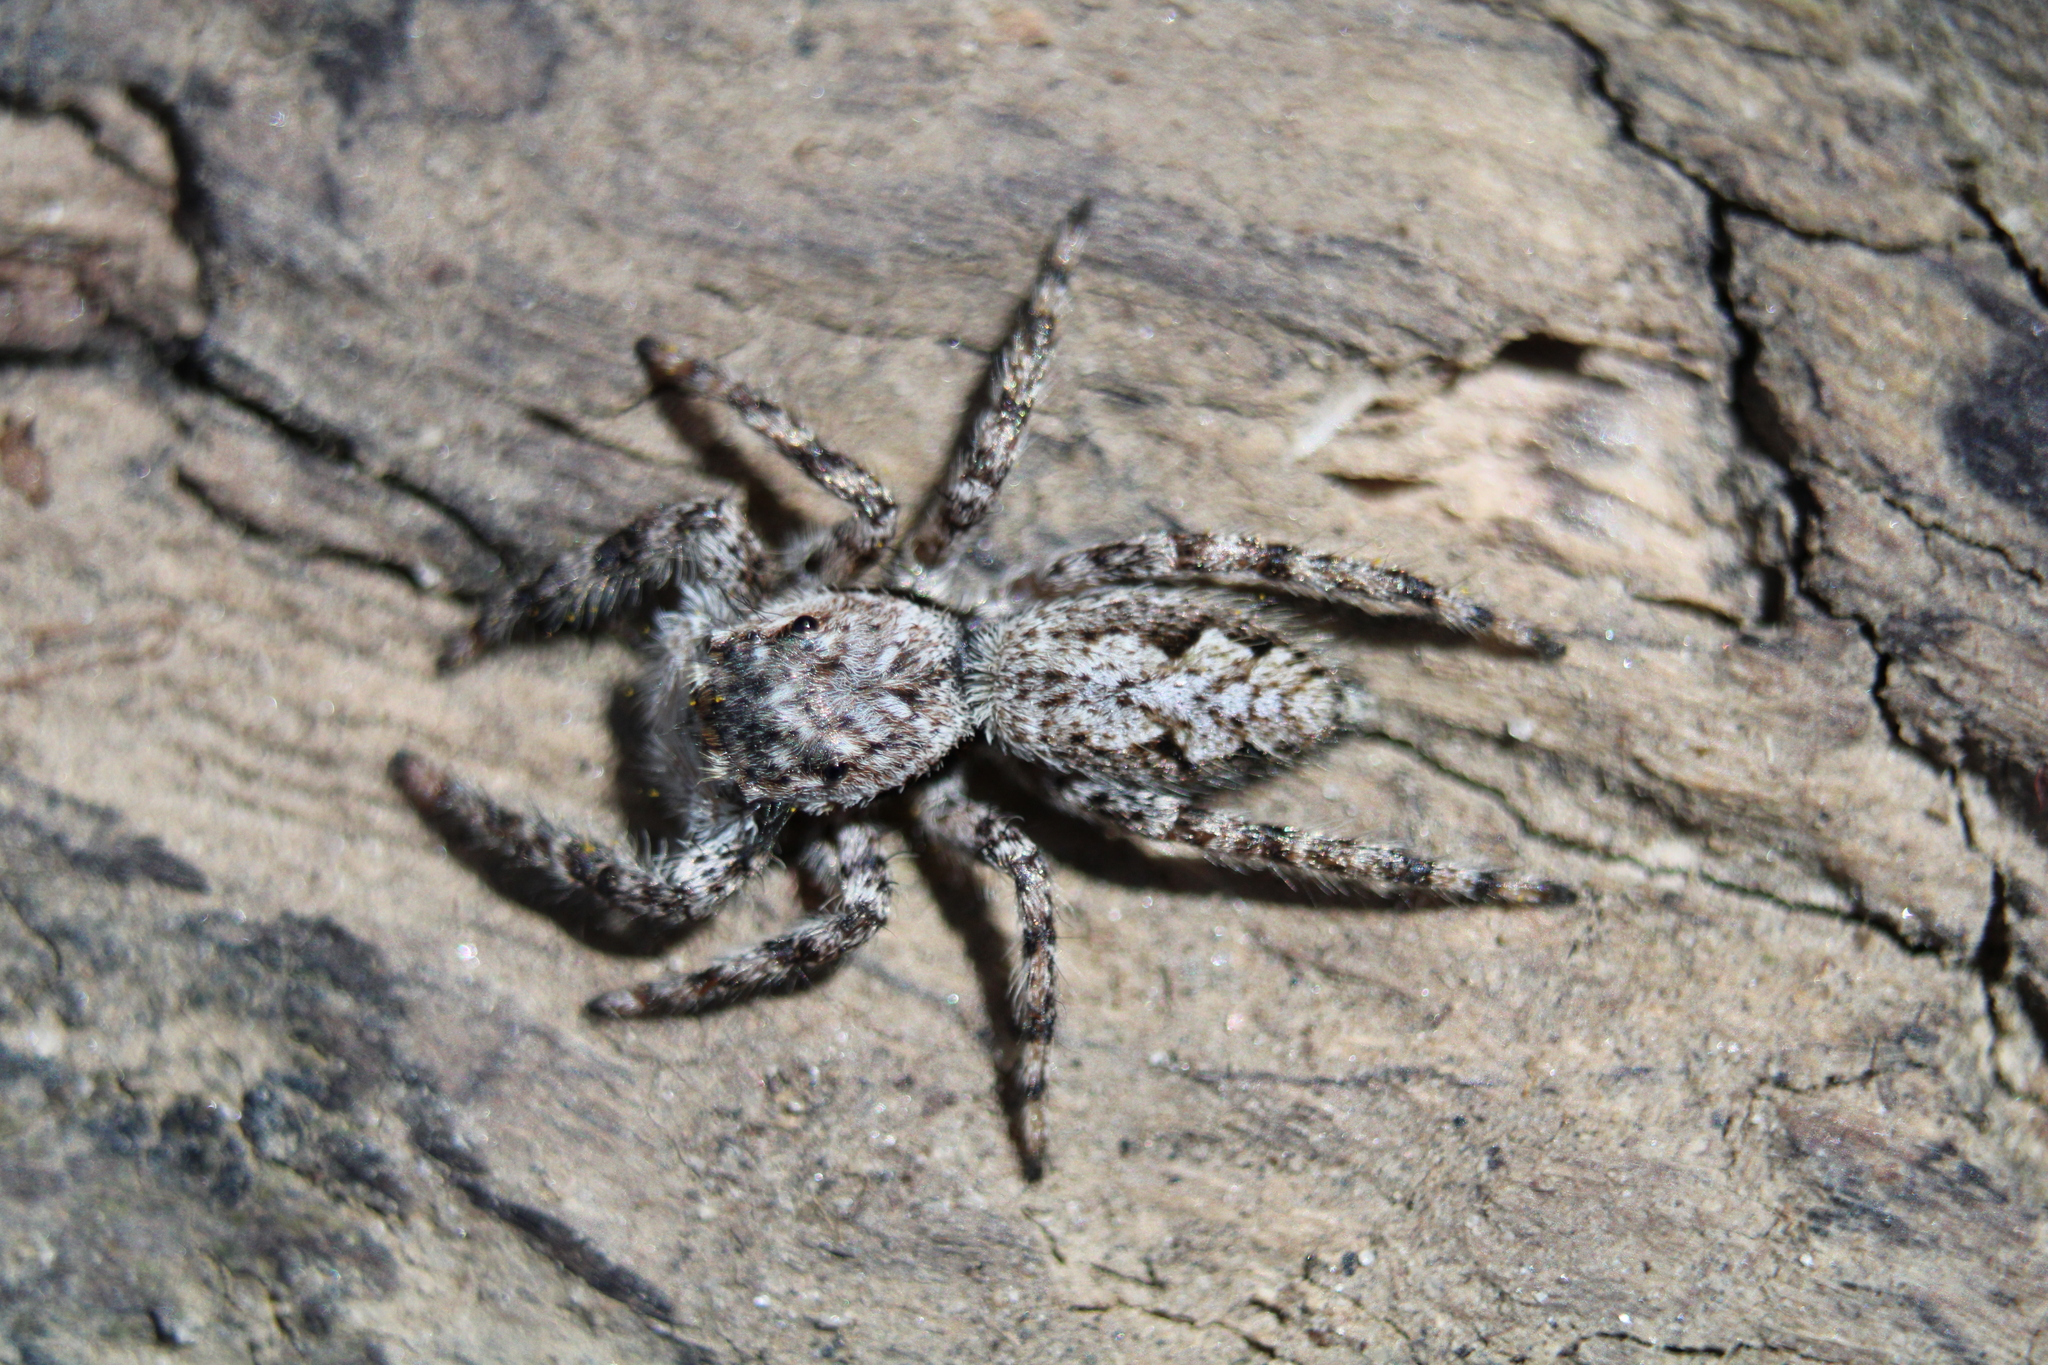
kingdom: Animalia
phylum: Arthropoda
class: Arachnida
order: Araneae
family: Salticidae
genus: Platycryptus
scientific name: Platycryptus undatus
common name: Tan jumping spider
